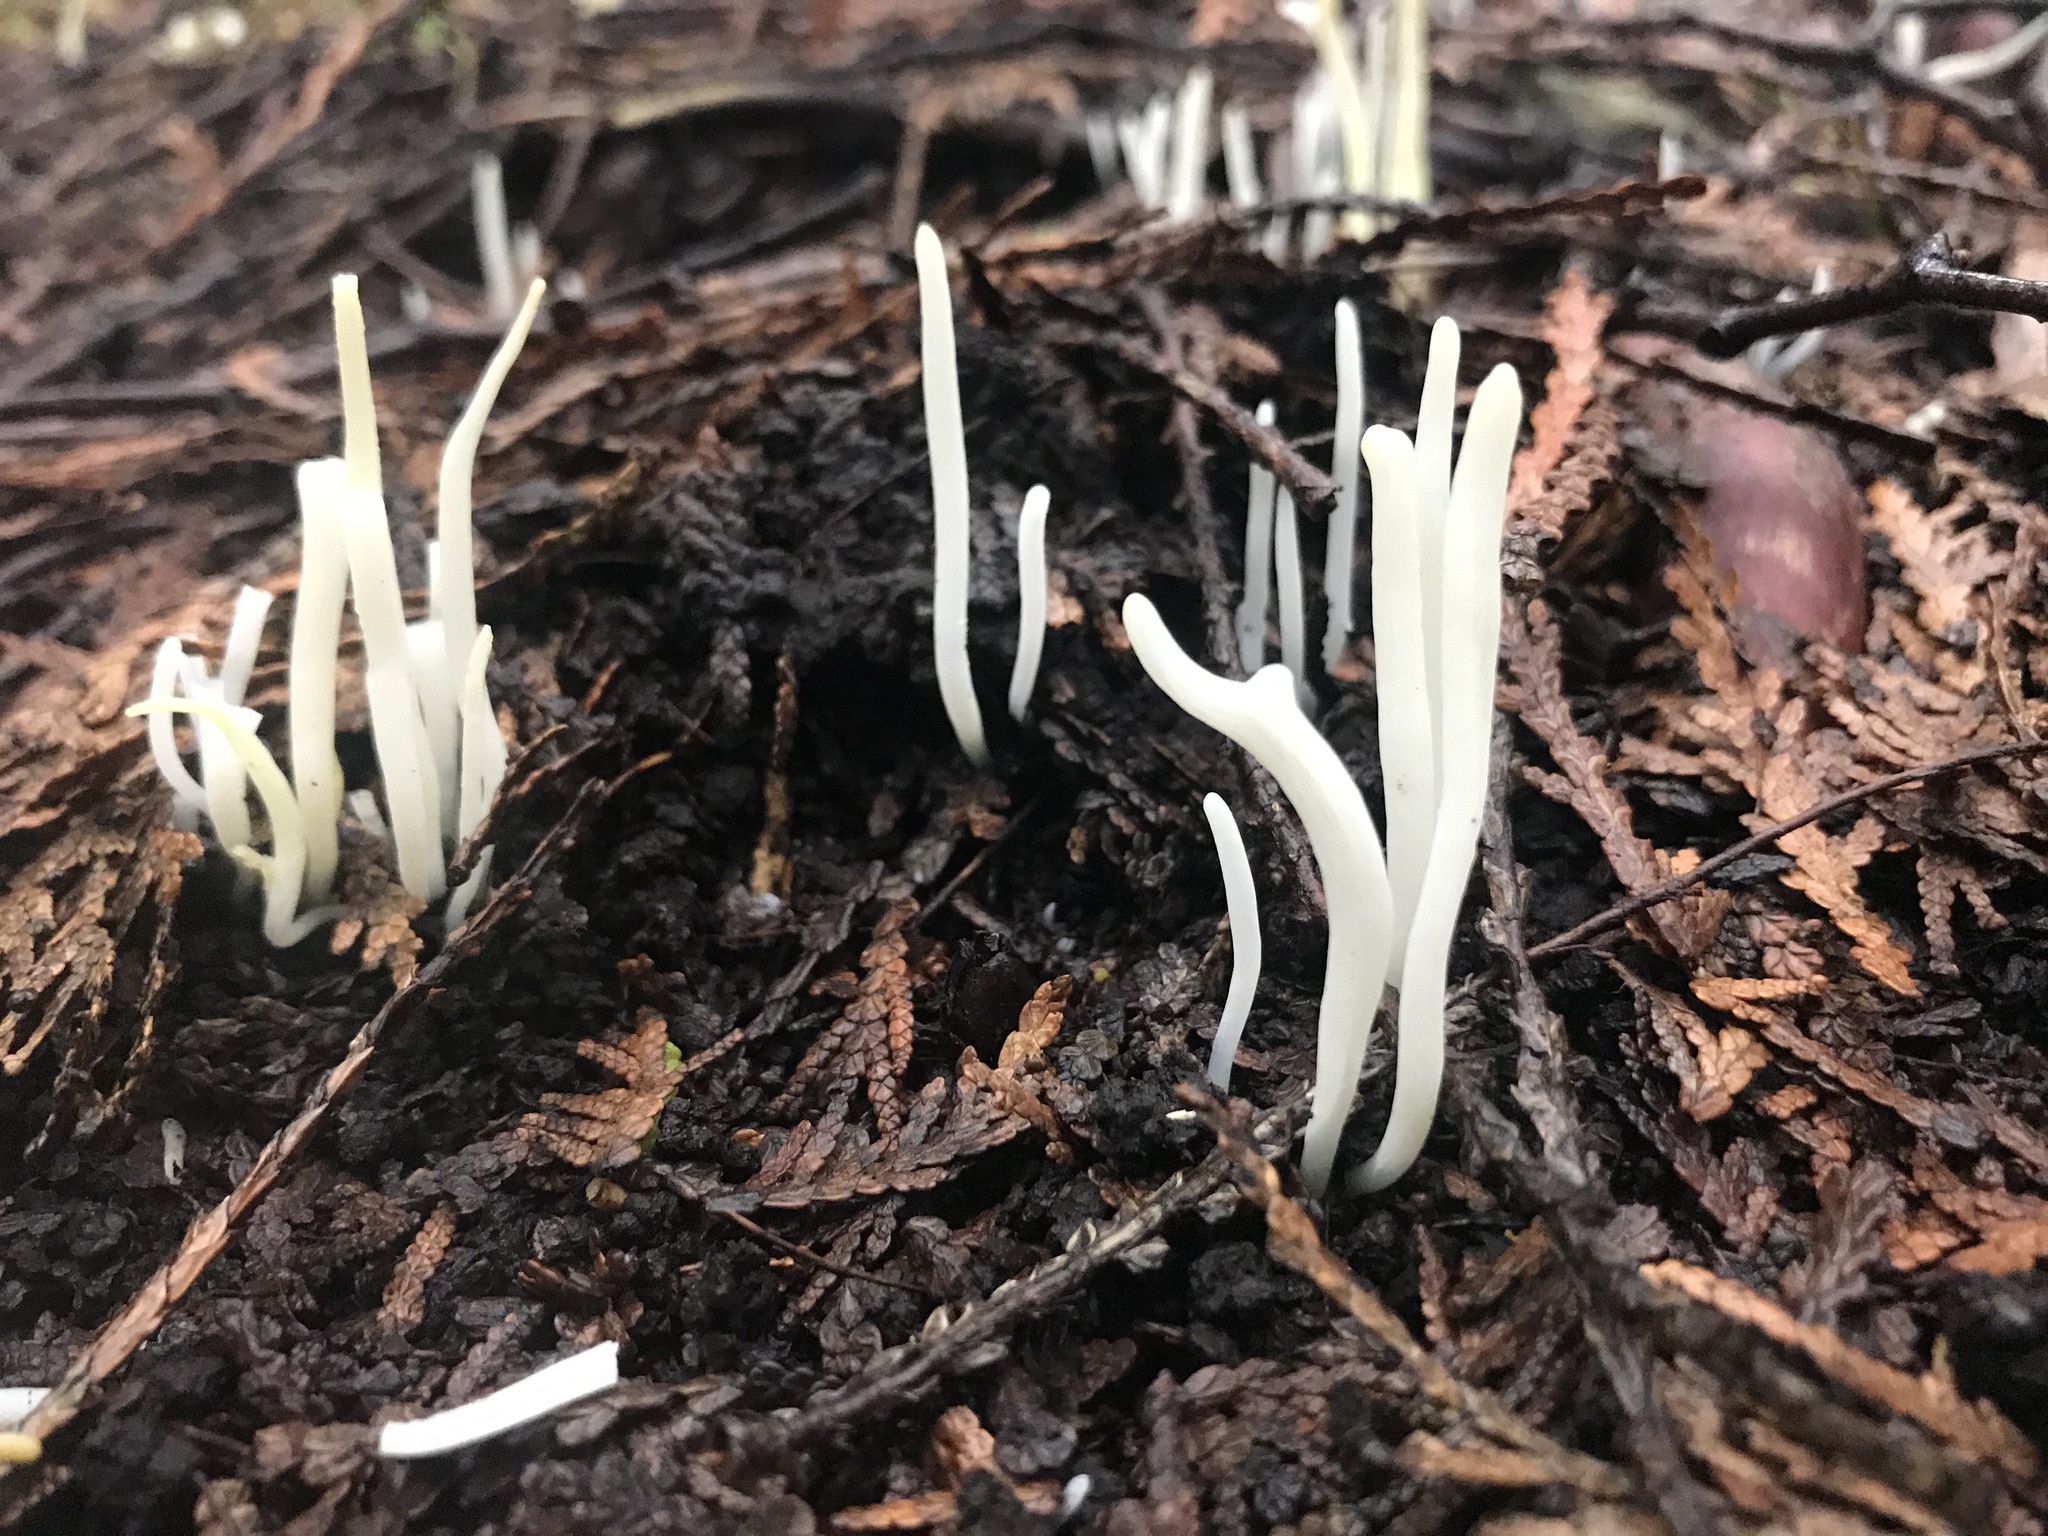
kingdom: Fungi
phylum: Basidiomycota
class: Agaricomycetes
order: Agaricales
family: Clavariaceae
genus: Clavaria
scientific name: Clavaria fragilis
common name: White spindles
